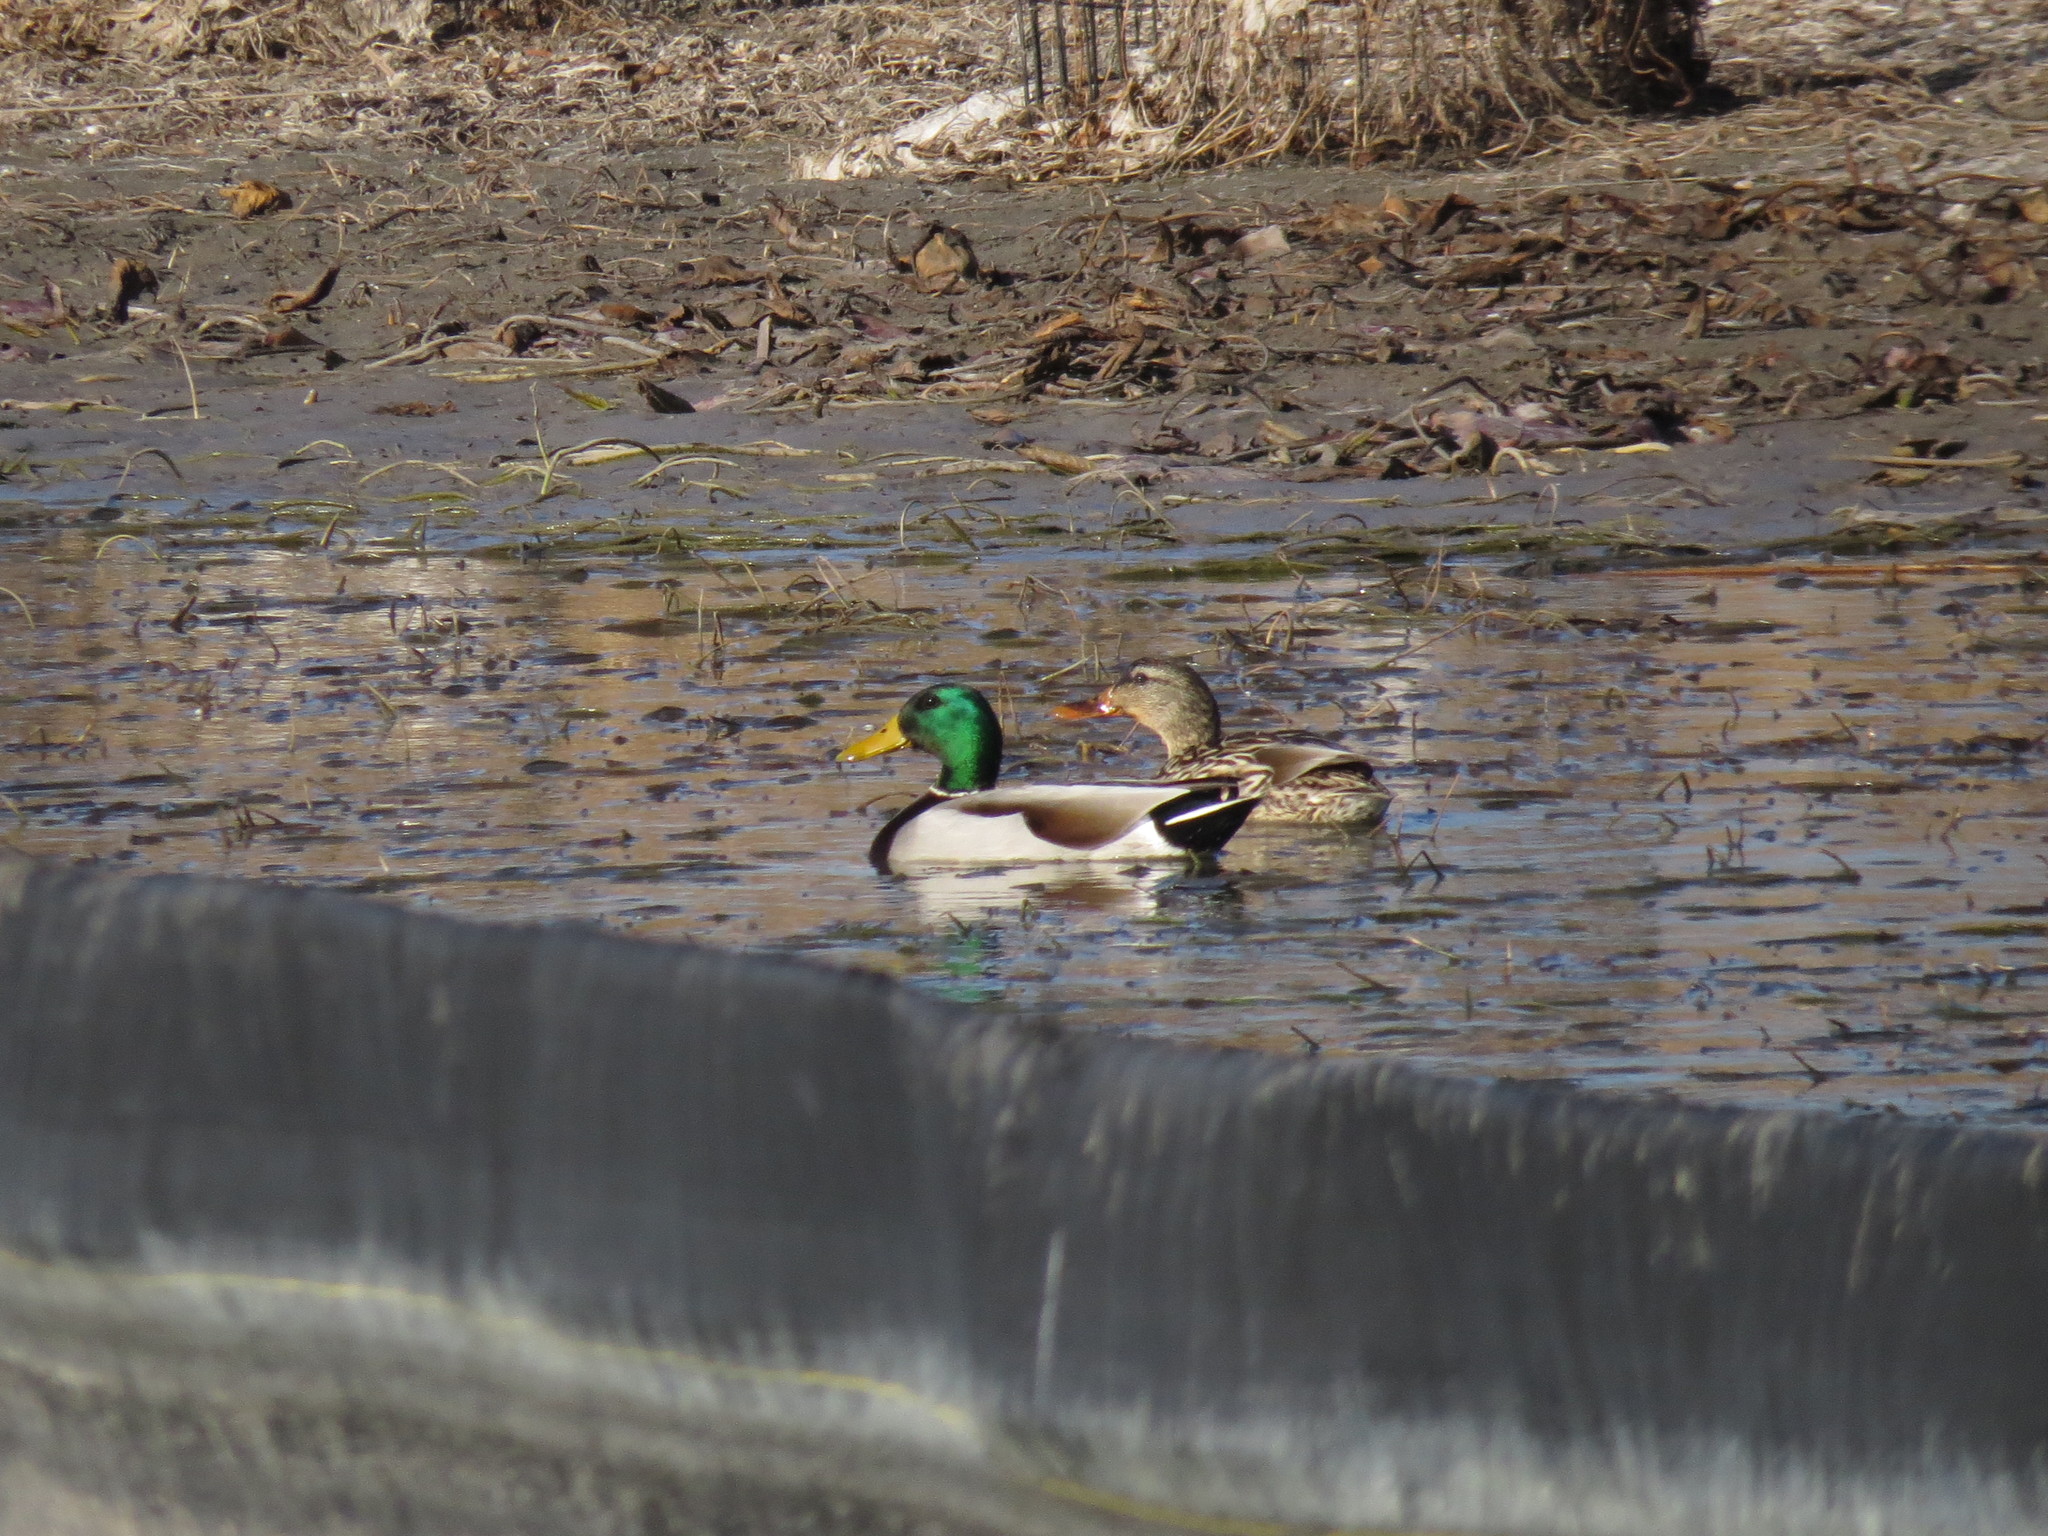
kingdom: Animalia
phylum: Chordata
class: Aves
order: Anseriformes
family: Anatidae
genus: Anas
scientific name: Anas platyrhynchos
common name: Mallard
